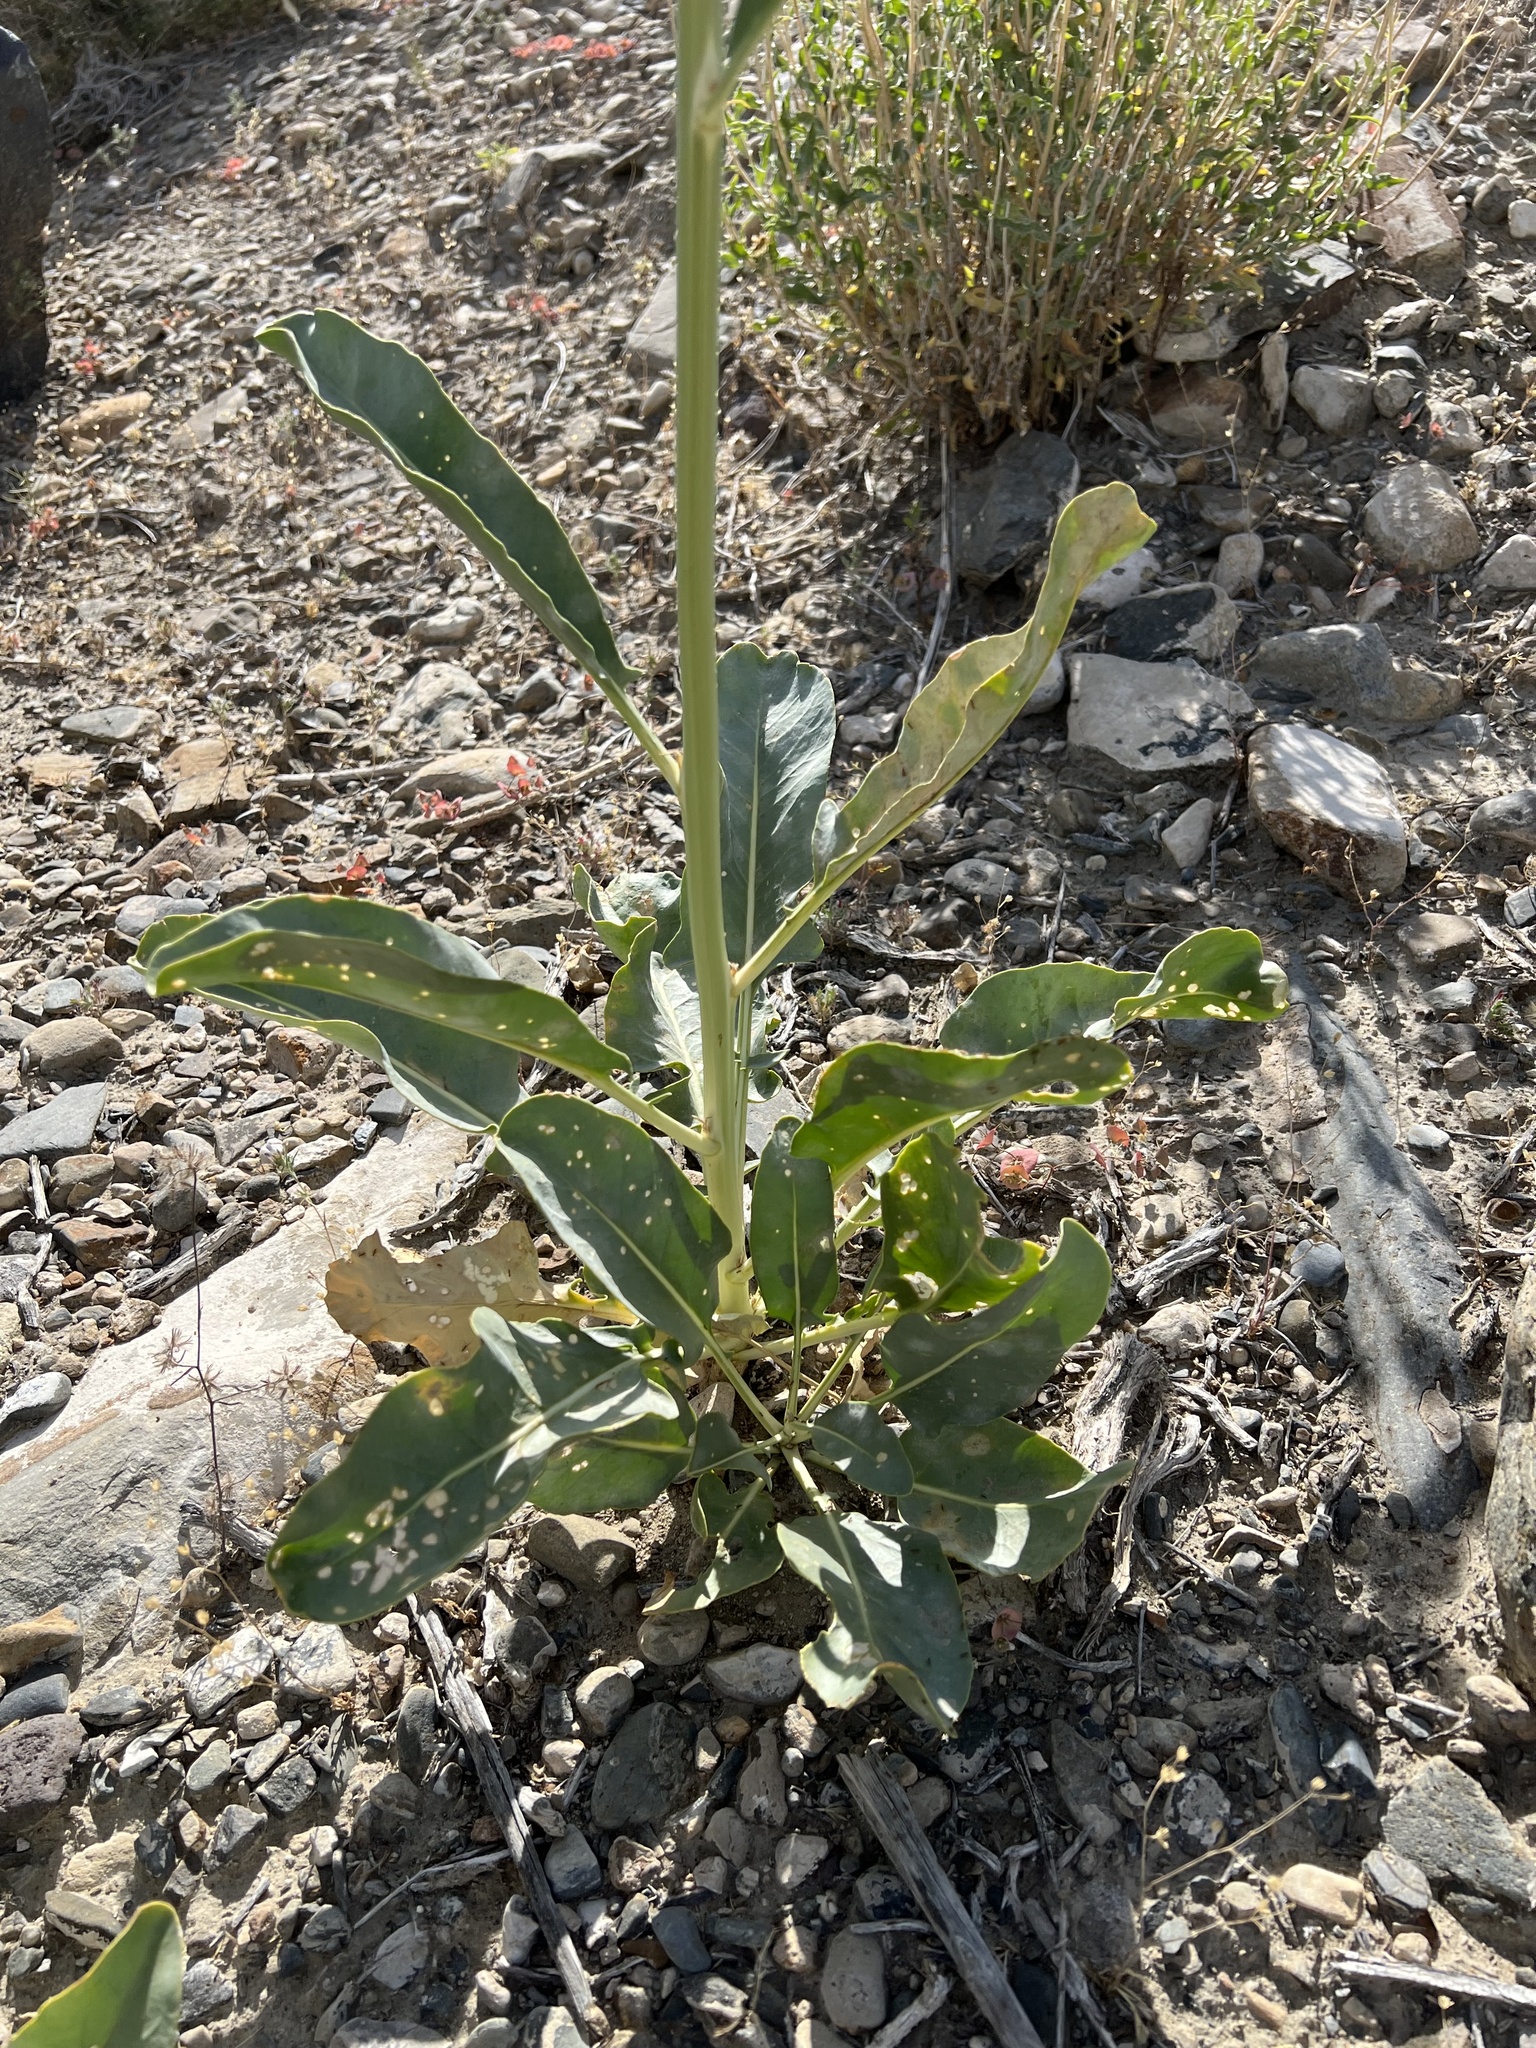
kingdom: Plantae
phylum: Tracheophyta
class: Magnoliopsida
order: Brassicales
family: Brassicaceae
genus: Stanleya
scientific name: Stanleya elata
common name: Panamint prince's plume
